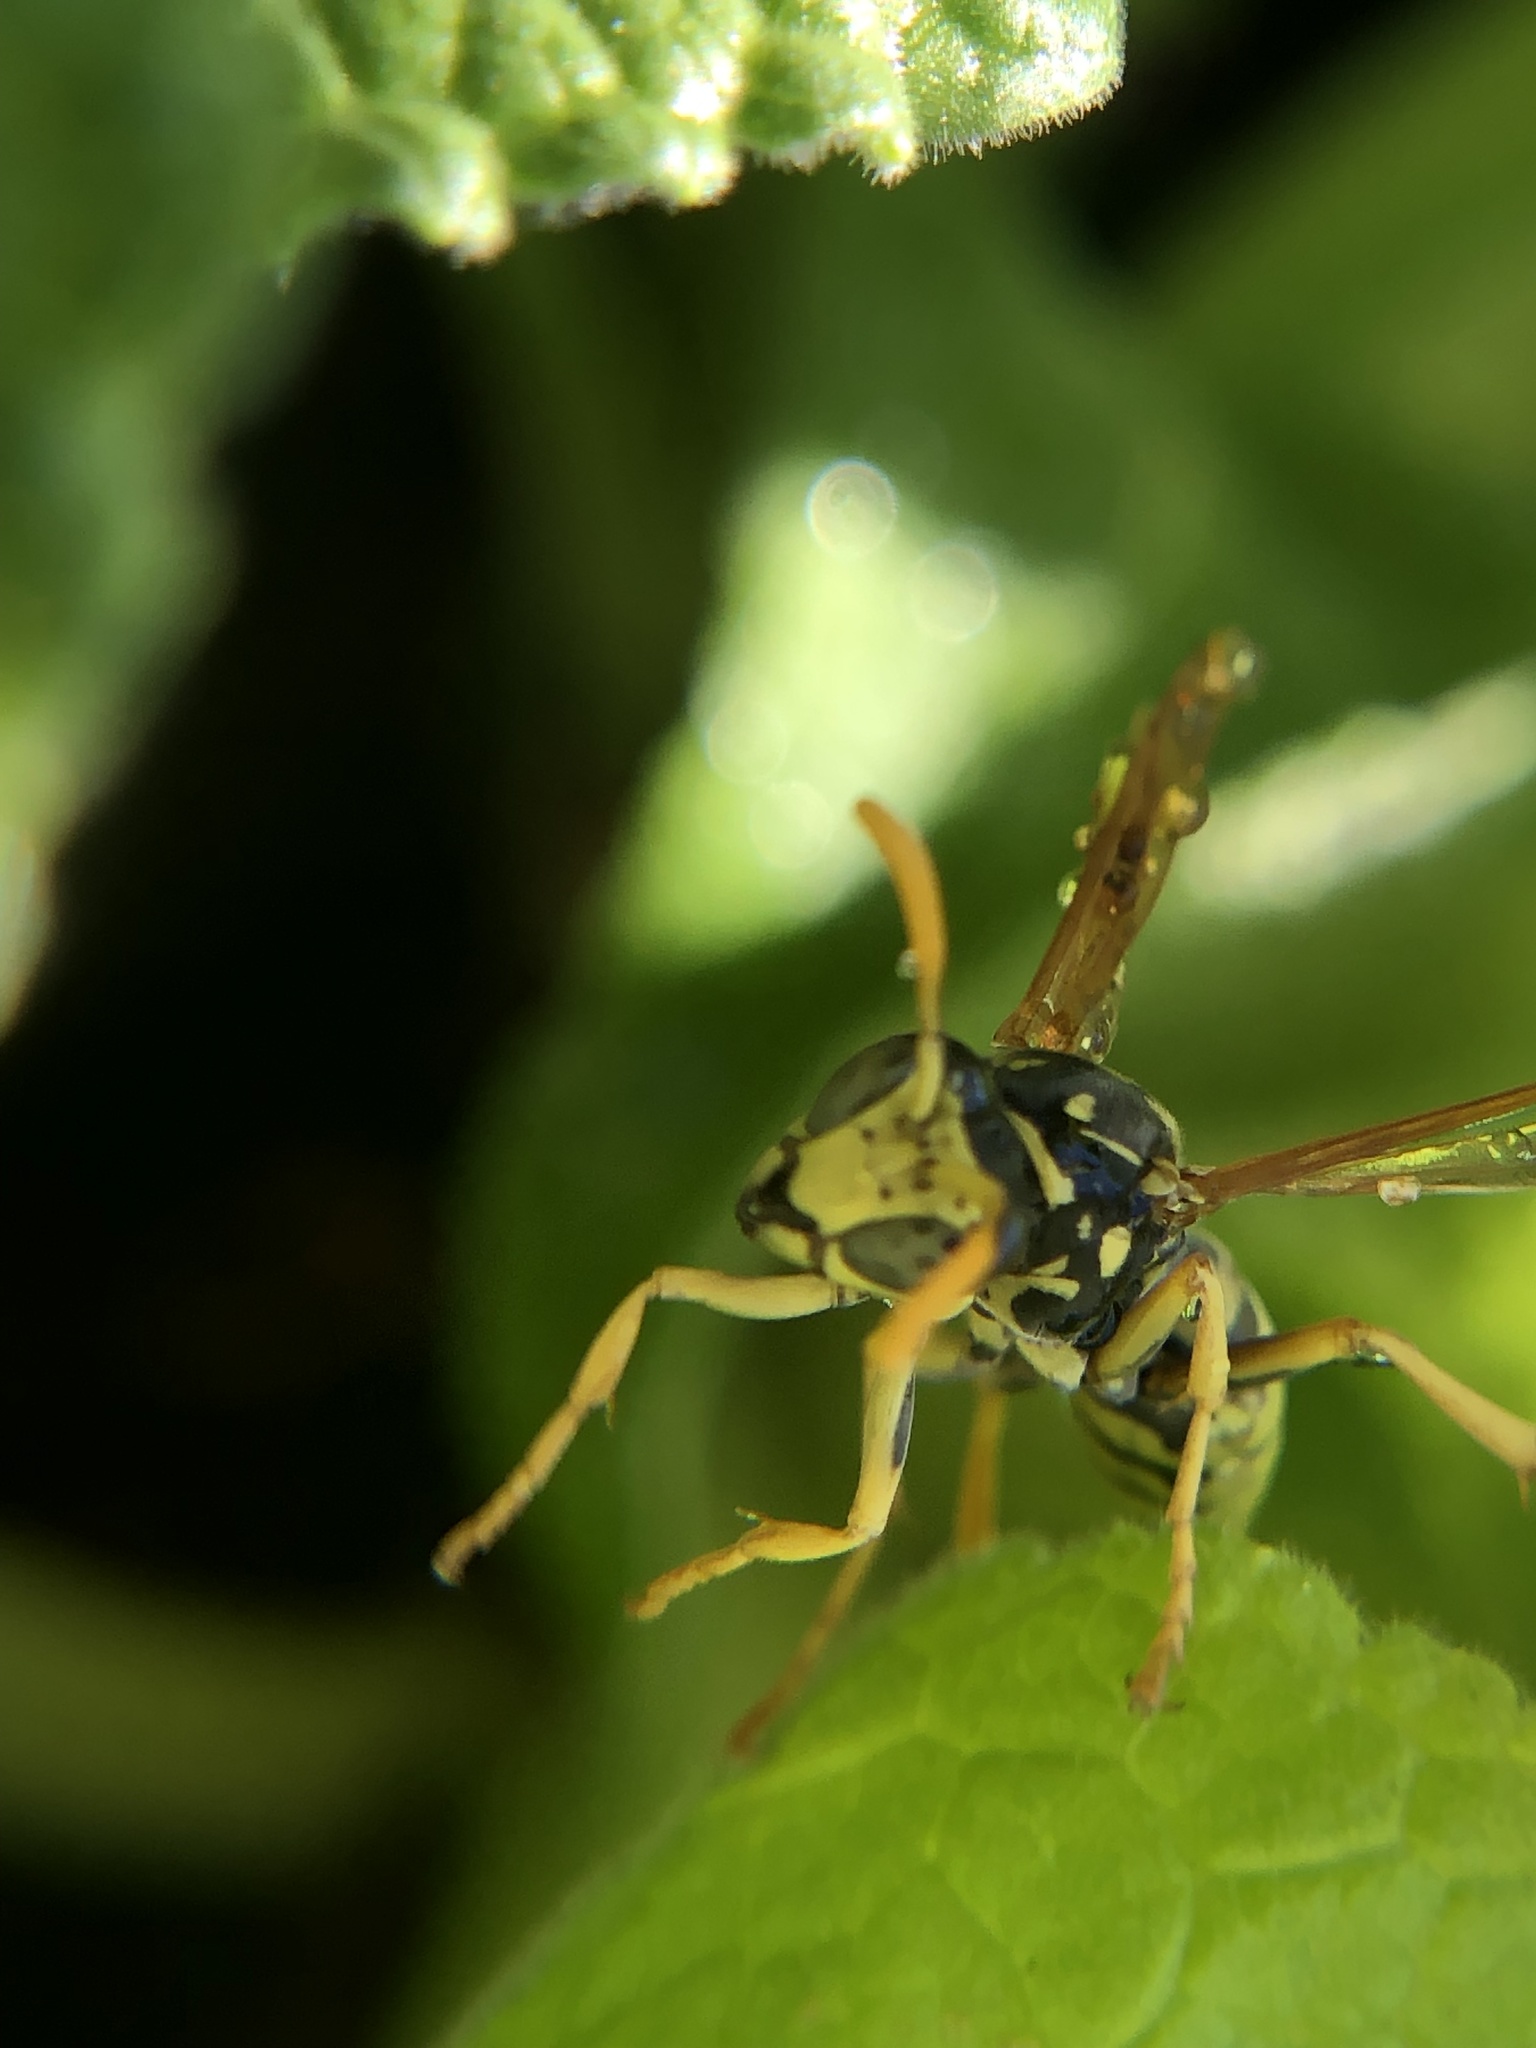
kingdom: Animalia
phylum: Arthropoda
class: Insecta
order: Hymenoptera
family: Eumenidae
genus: Polistes
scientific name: Polistes dominula
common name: Paper wasp
